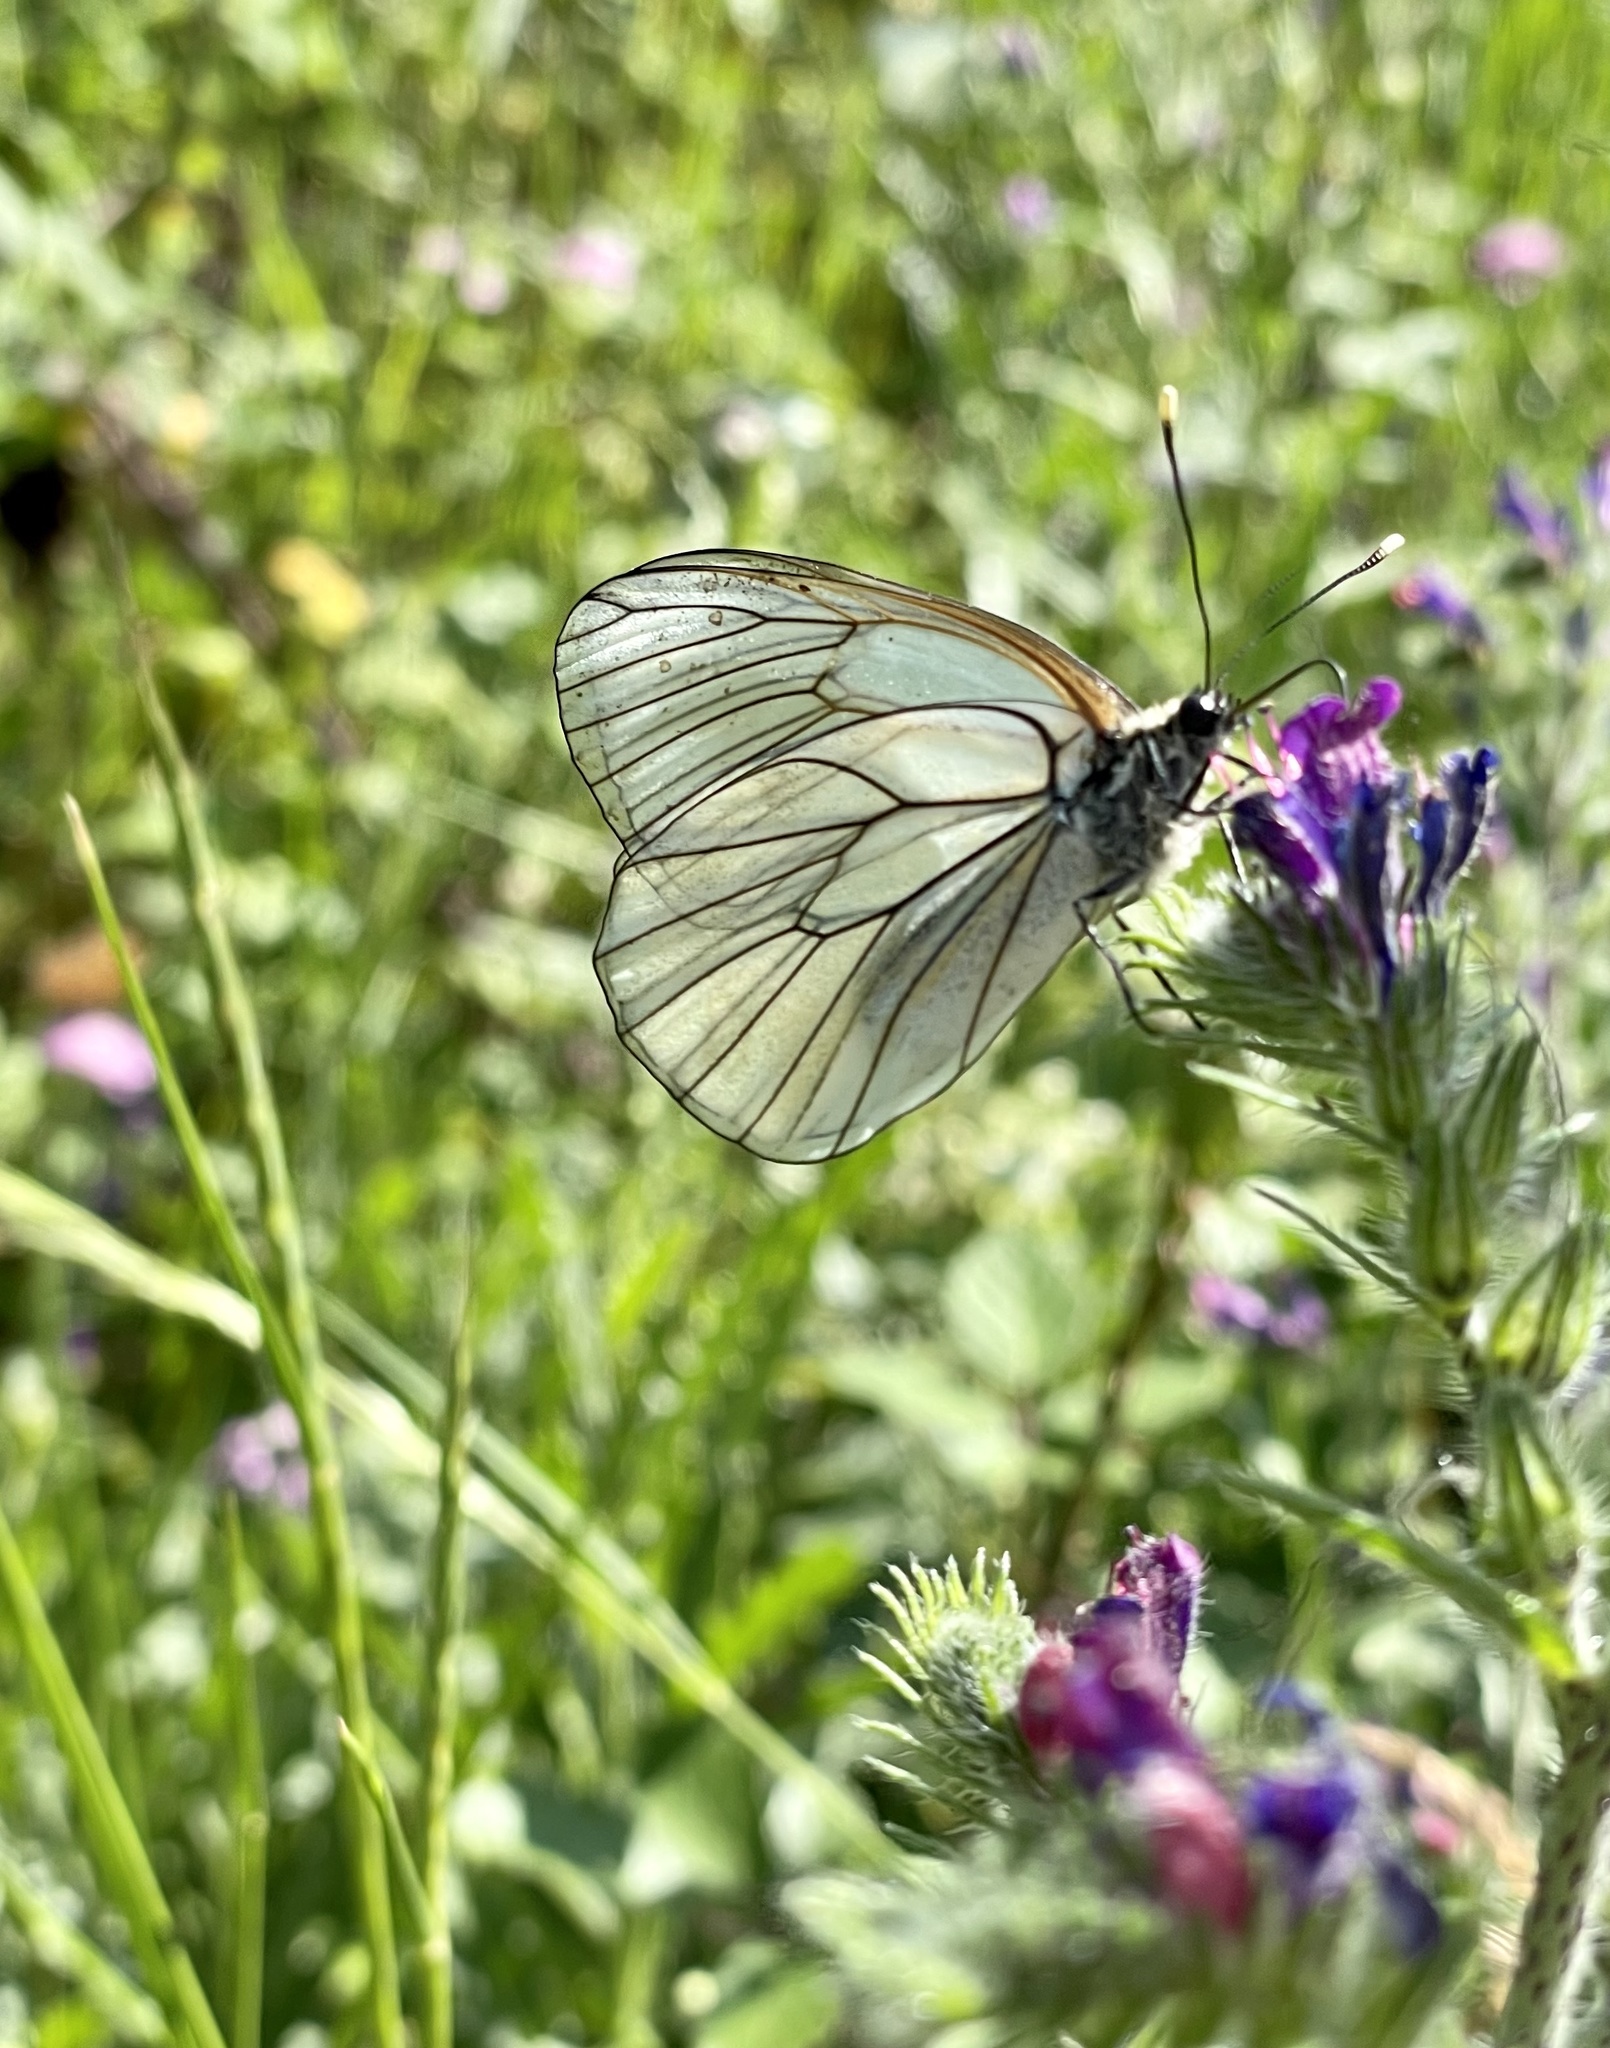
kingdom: Animalia
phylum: Arthropoda
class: Insecta
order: Lepidoptera
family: Pieridae
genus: Aporia
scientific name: Aporia crataegi
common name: Black-veined white
